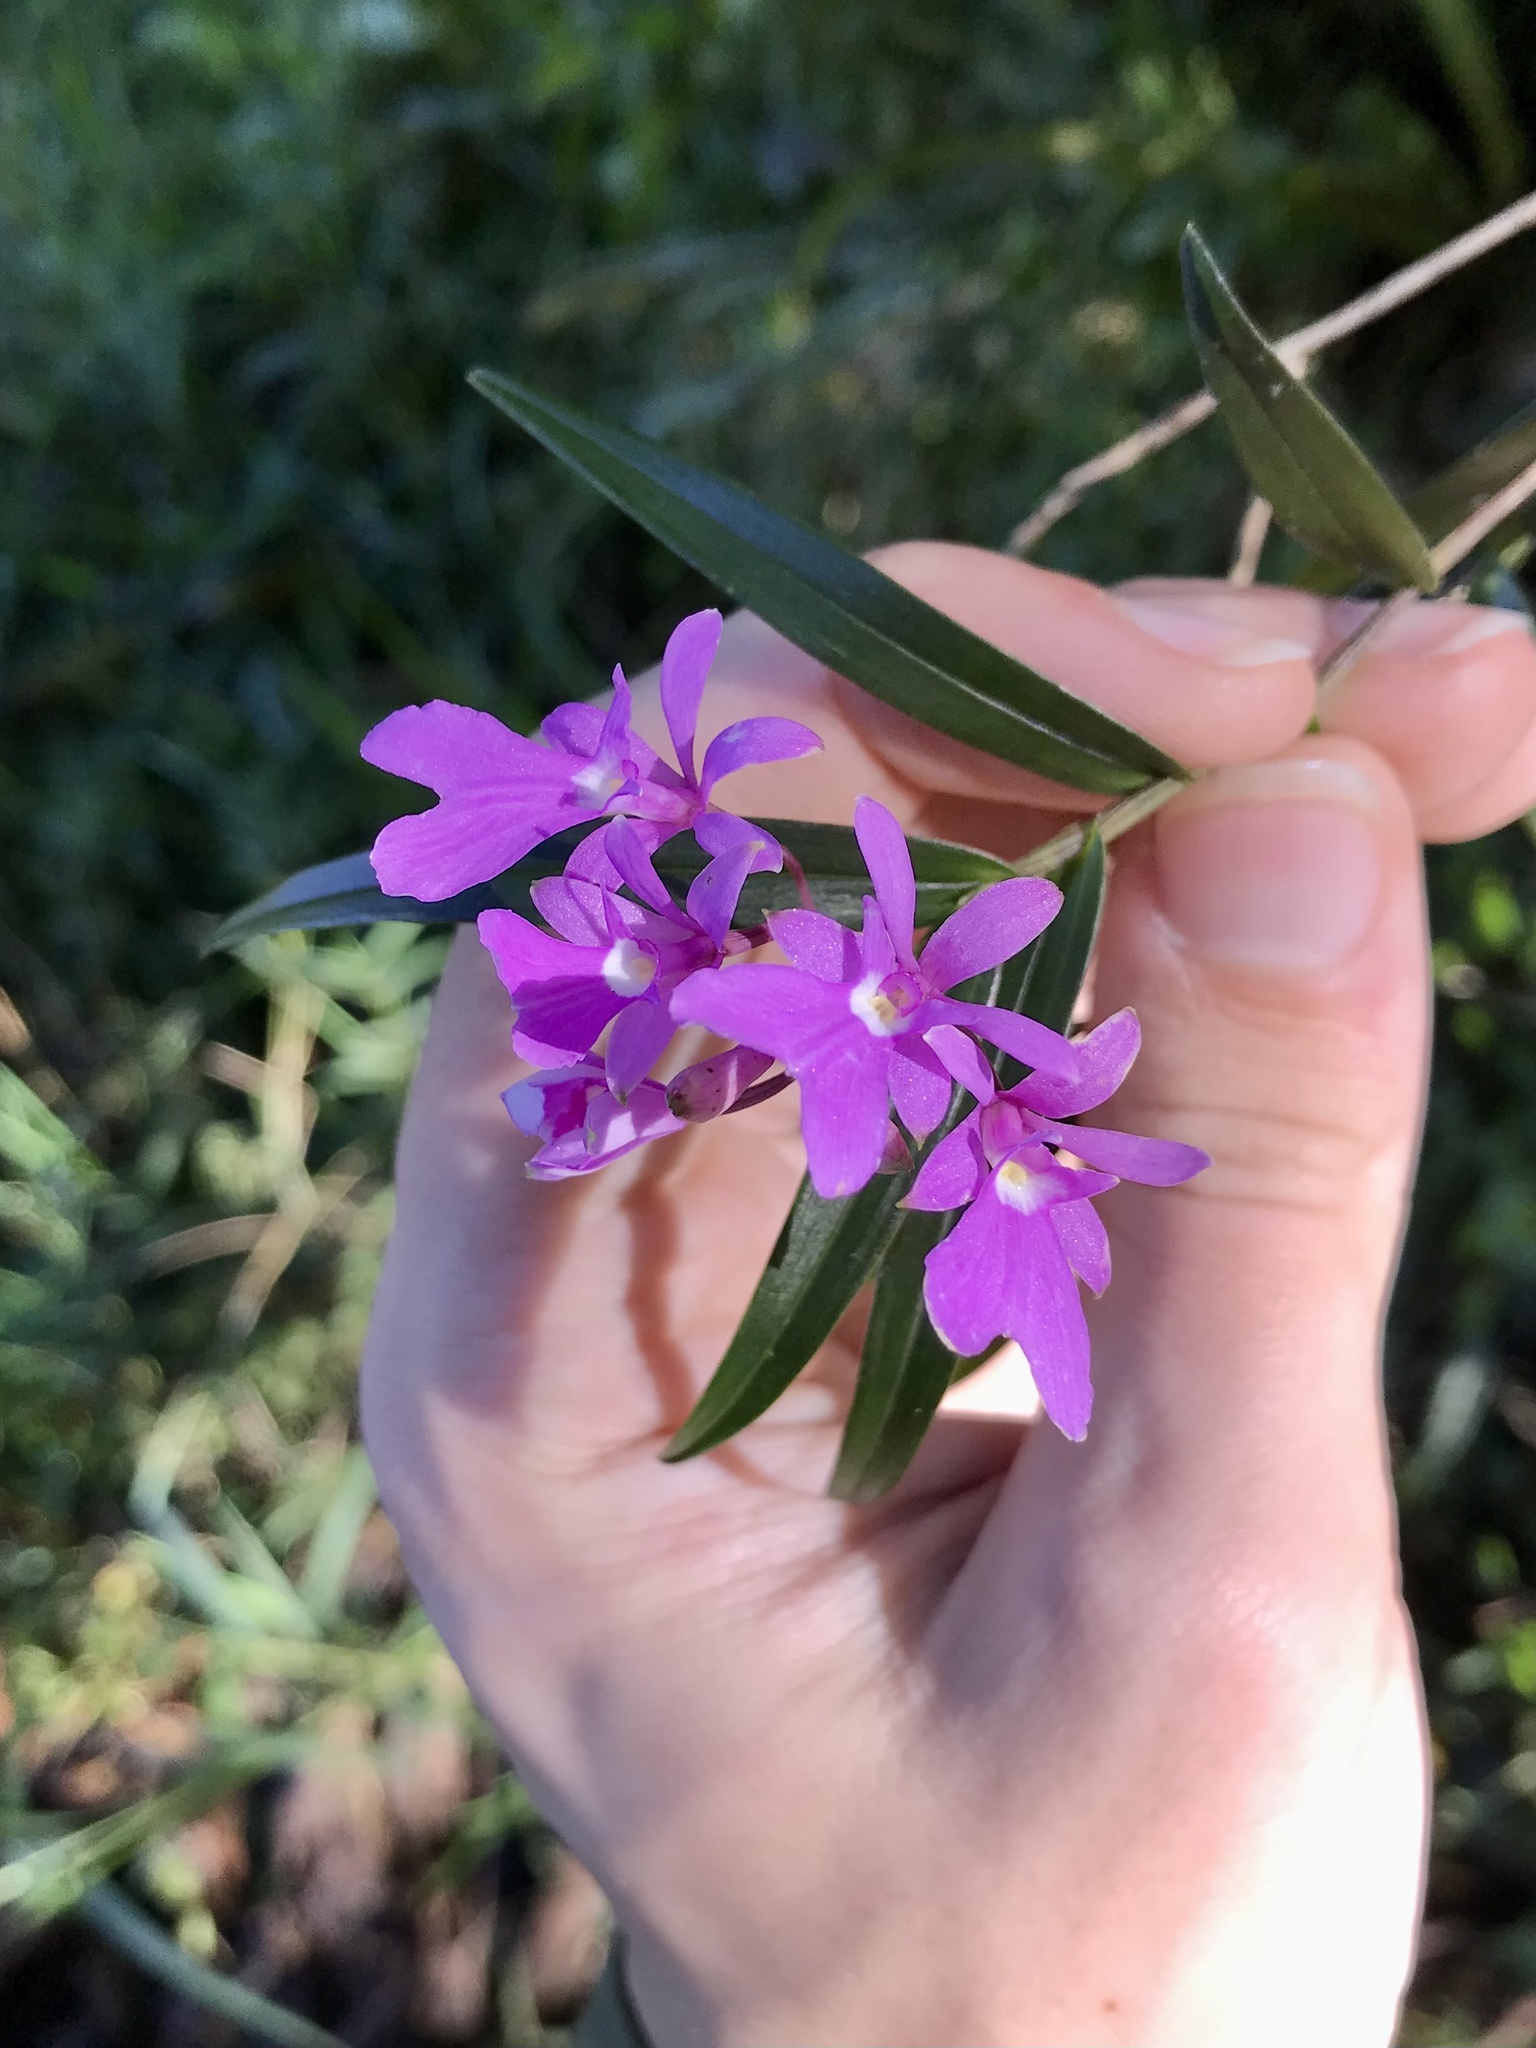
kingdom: Plantae
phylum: Tracheophyta
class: Liliopsida
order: Asparagales
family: Orchidaceae
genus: Epidendrum
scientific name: Epidendrum centropetalum
